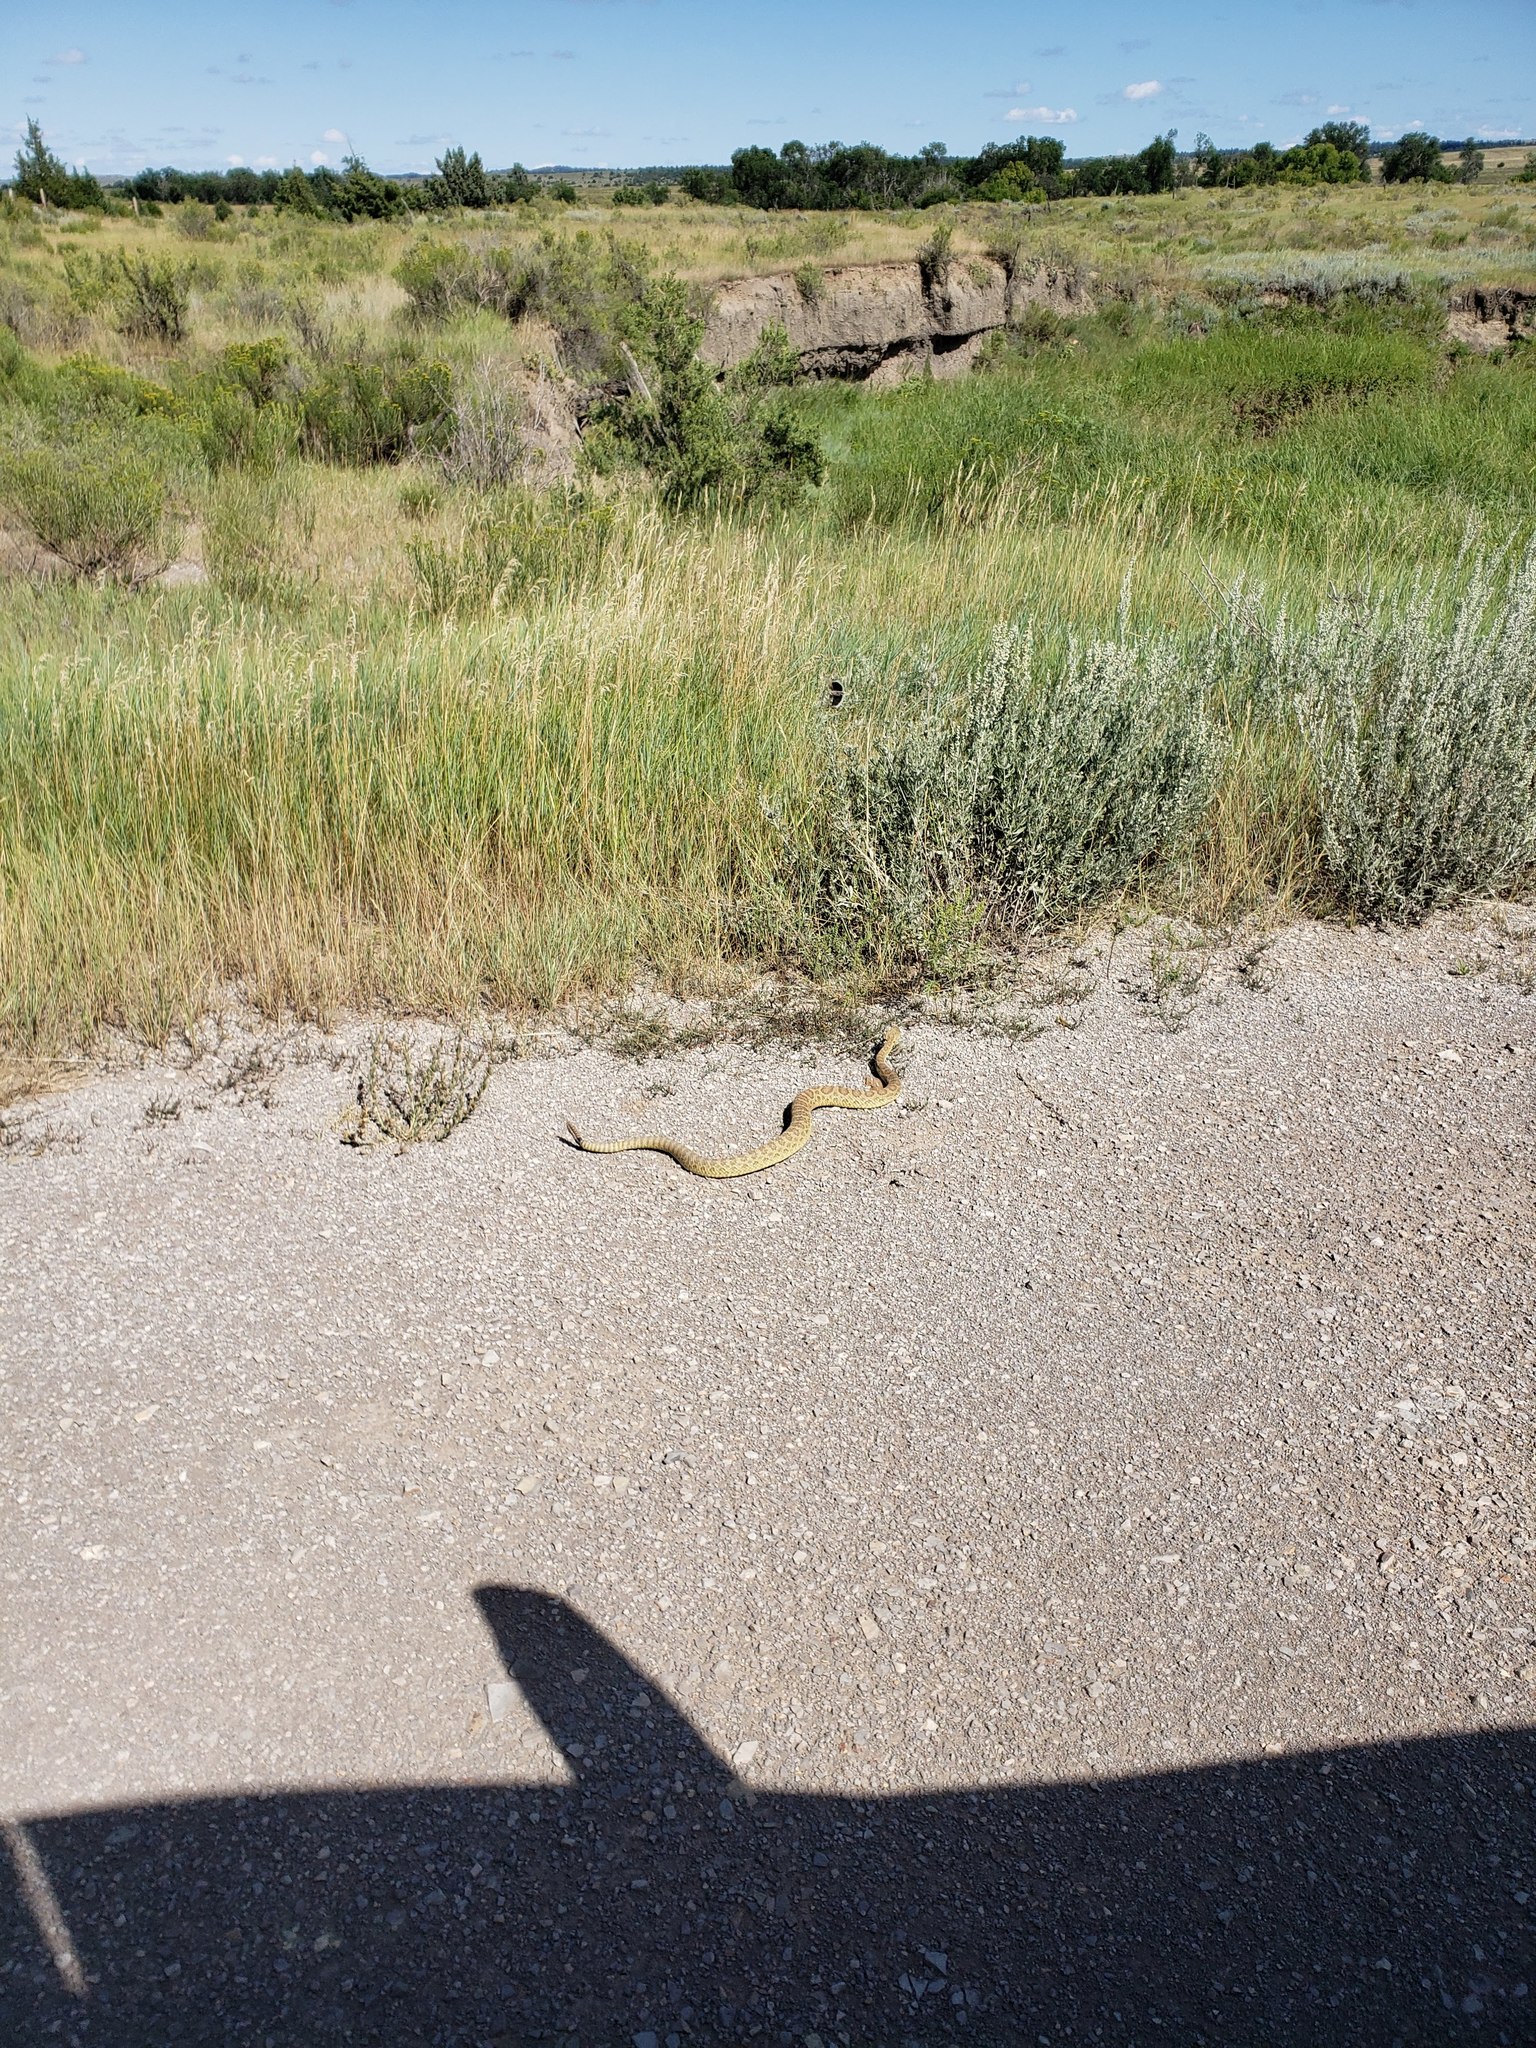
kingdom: Animalia
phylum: Chordata
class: Squamata
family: Viperidae
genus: Crotalus
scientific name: Crotalus viridis
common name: Prairie rattlesnake
